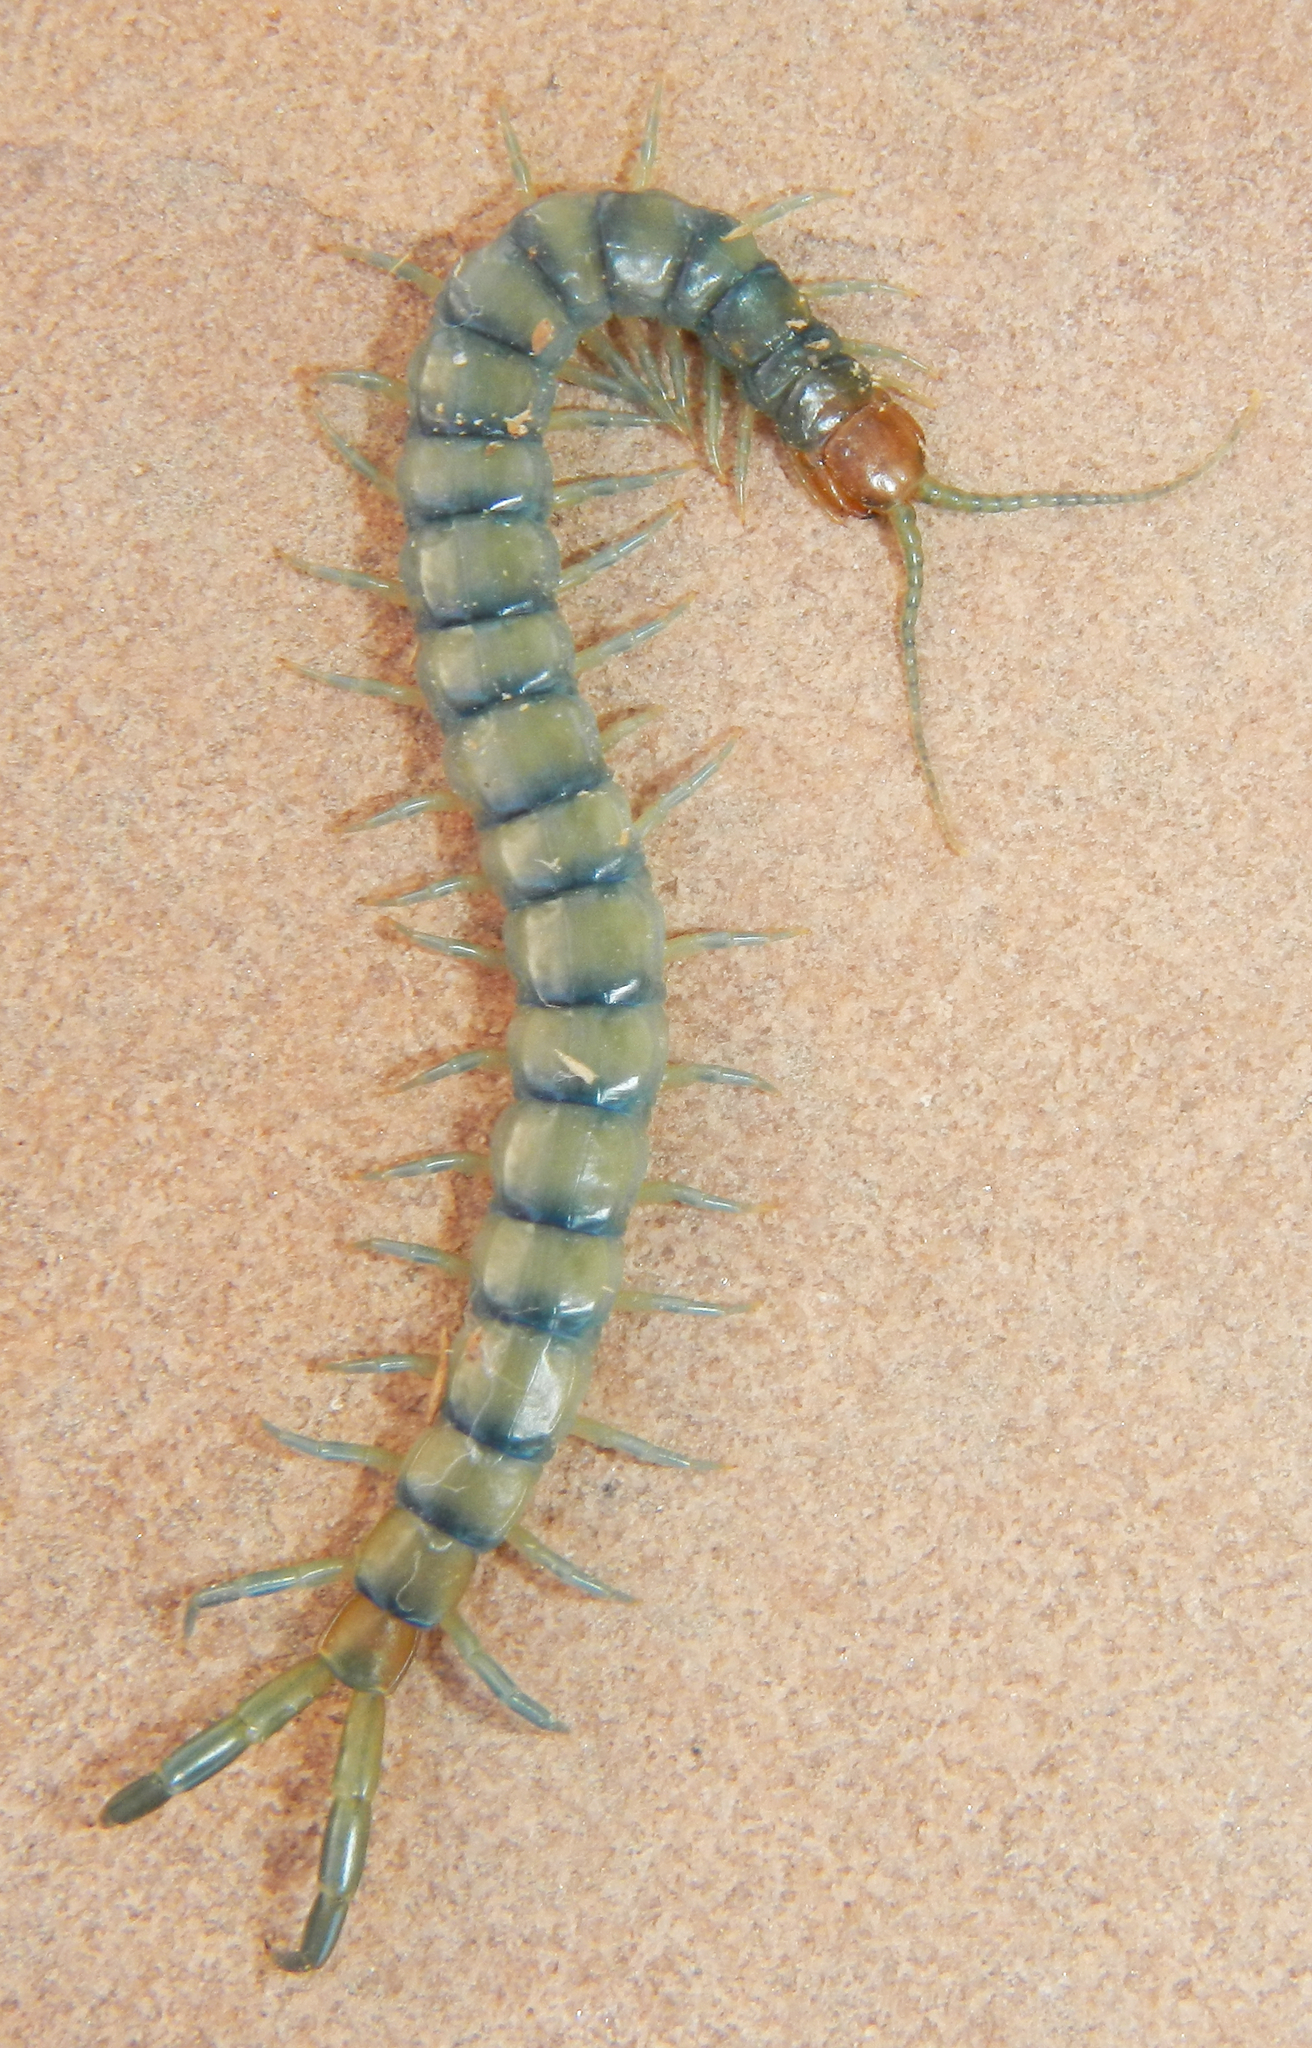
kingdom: Animalia
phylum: Arthropoda
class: Chilopoda
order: Scolopendromorpha
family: Scolopendridae
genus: Scolopendra
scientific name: Scolopendra polymorpha
